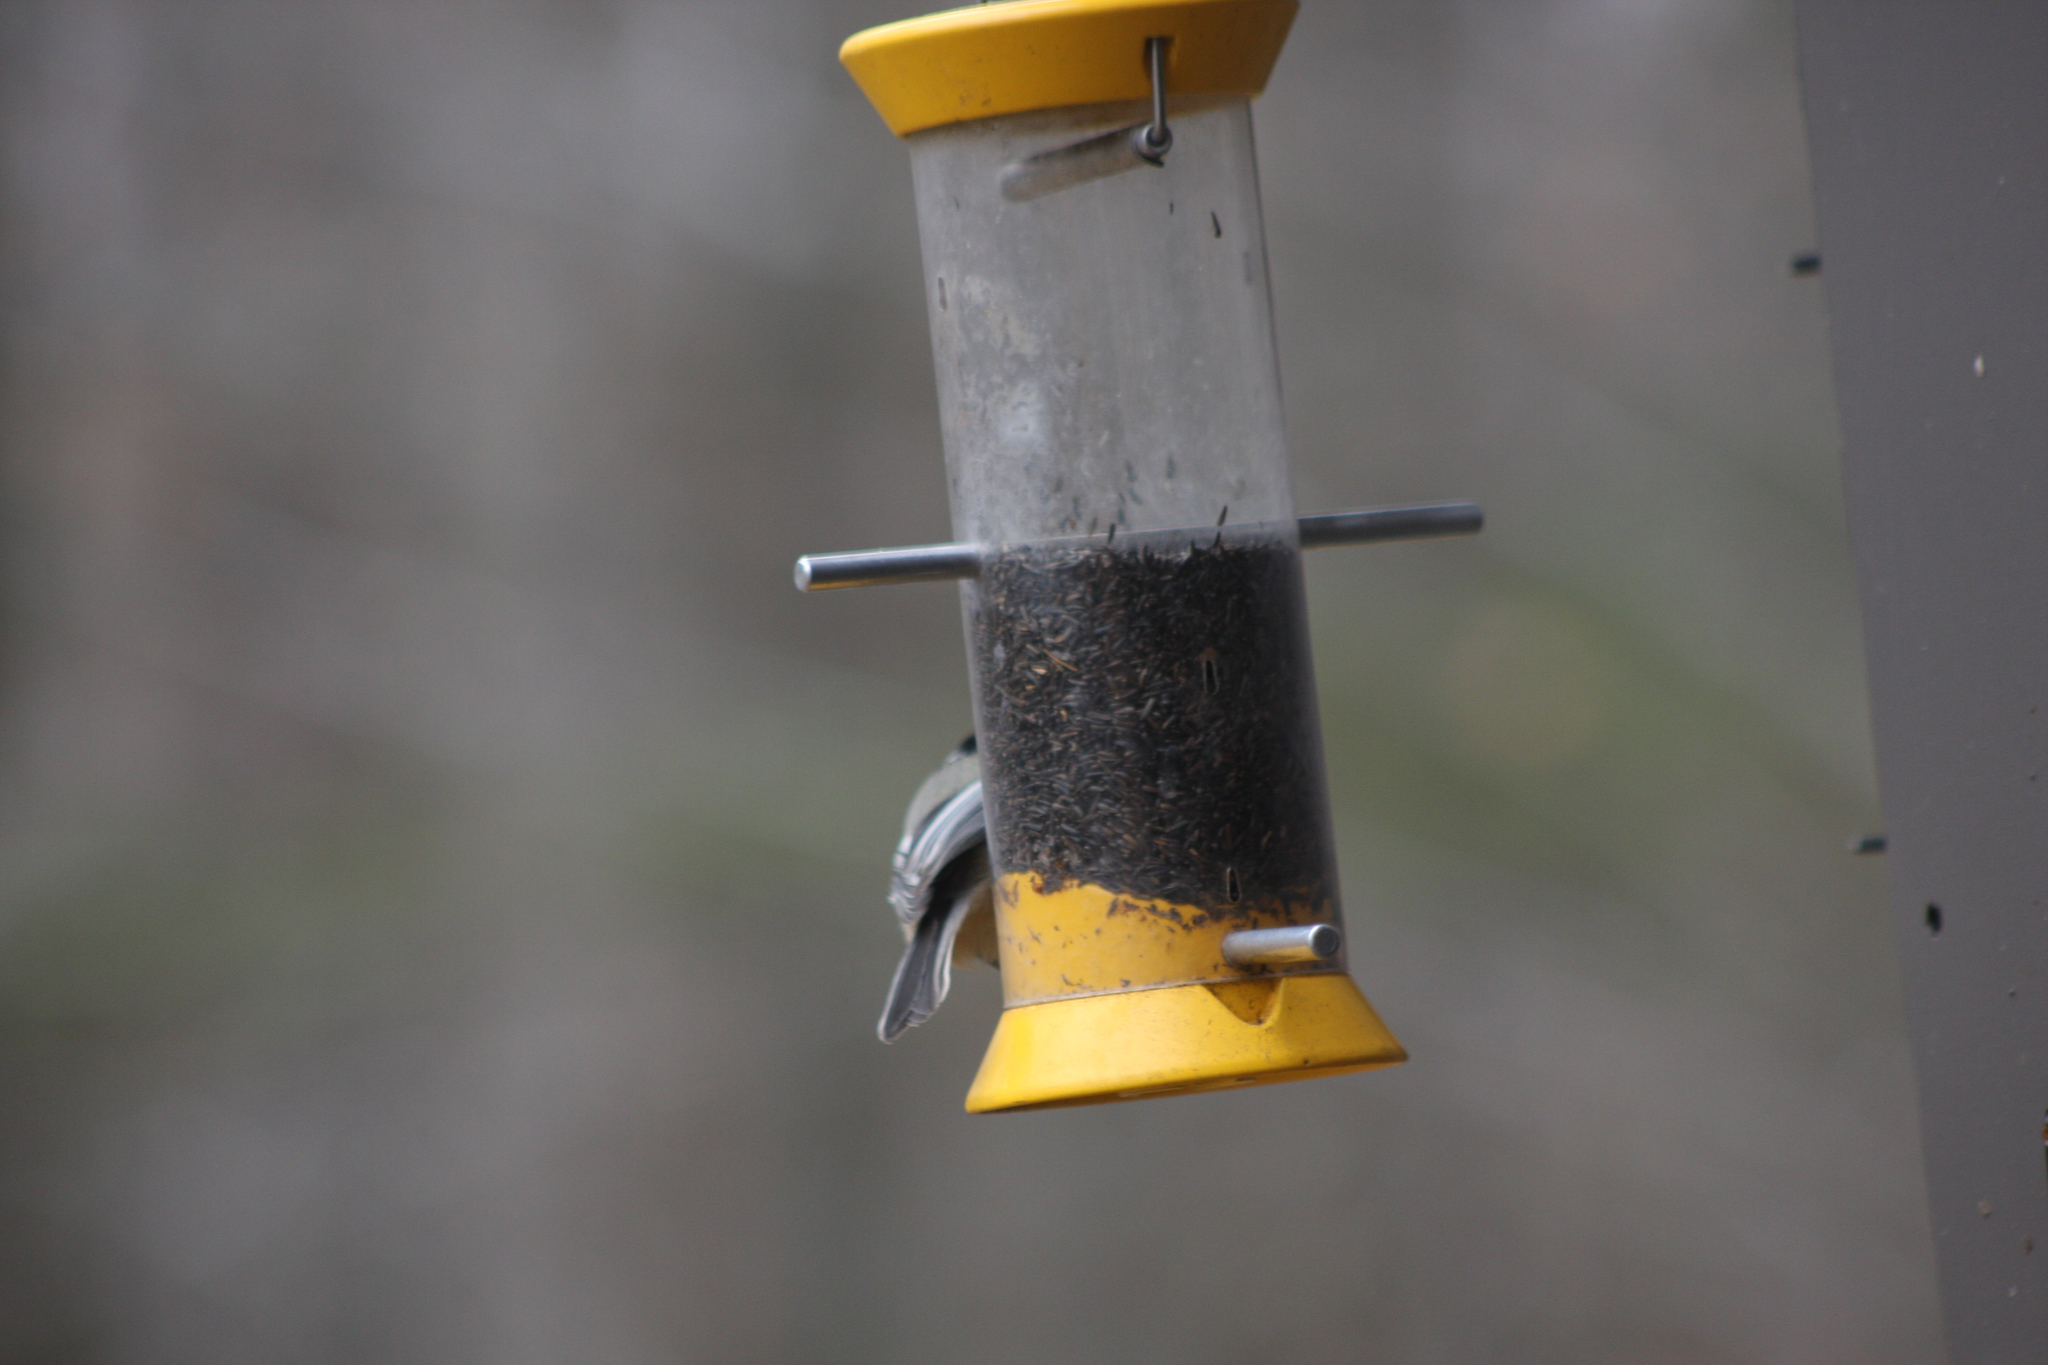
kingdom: Animalia
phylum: Chordata
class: Aves
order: Passeriformes
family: Paridae
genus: Poecile
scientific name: Poecile atricapillus
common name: Black-capped chickadee
